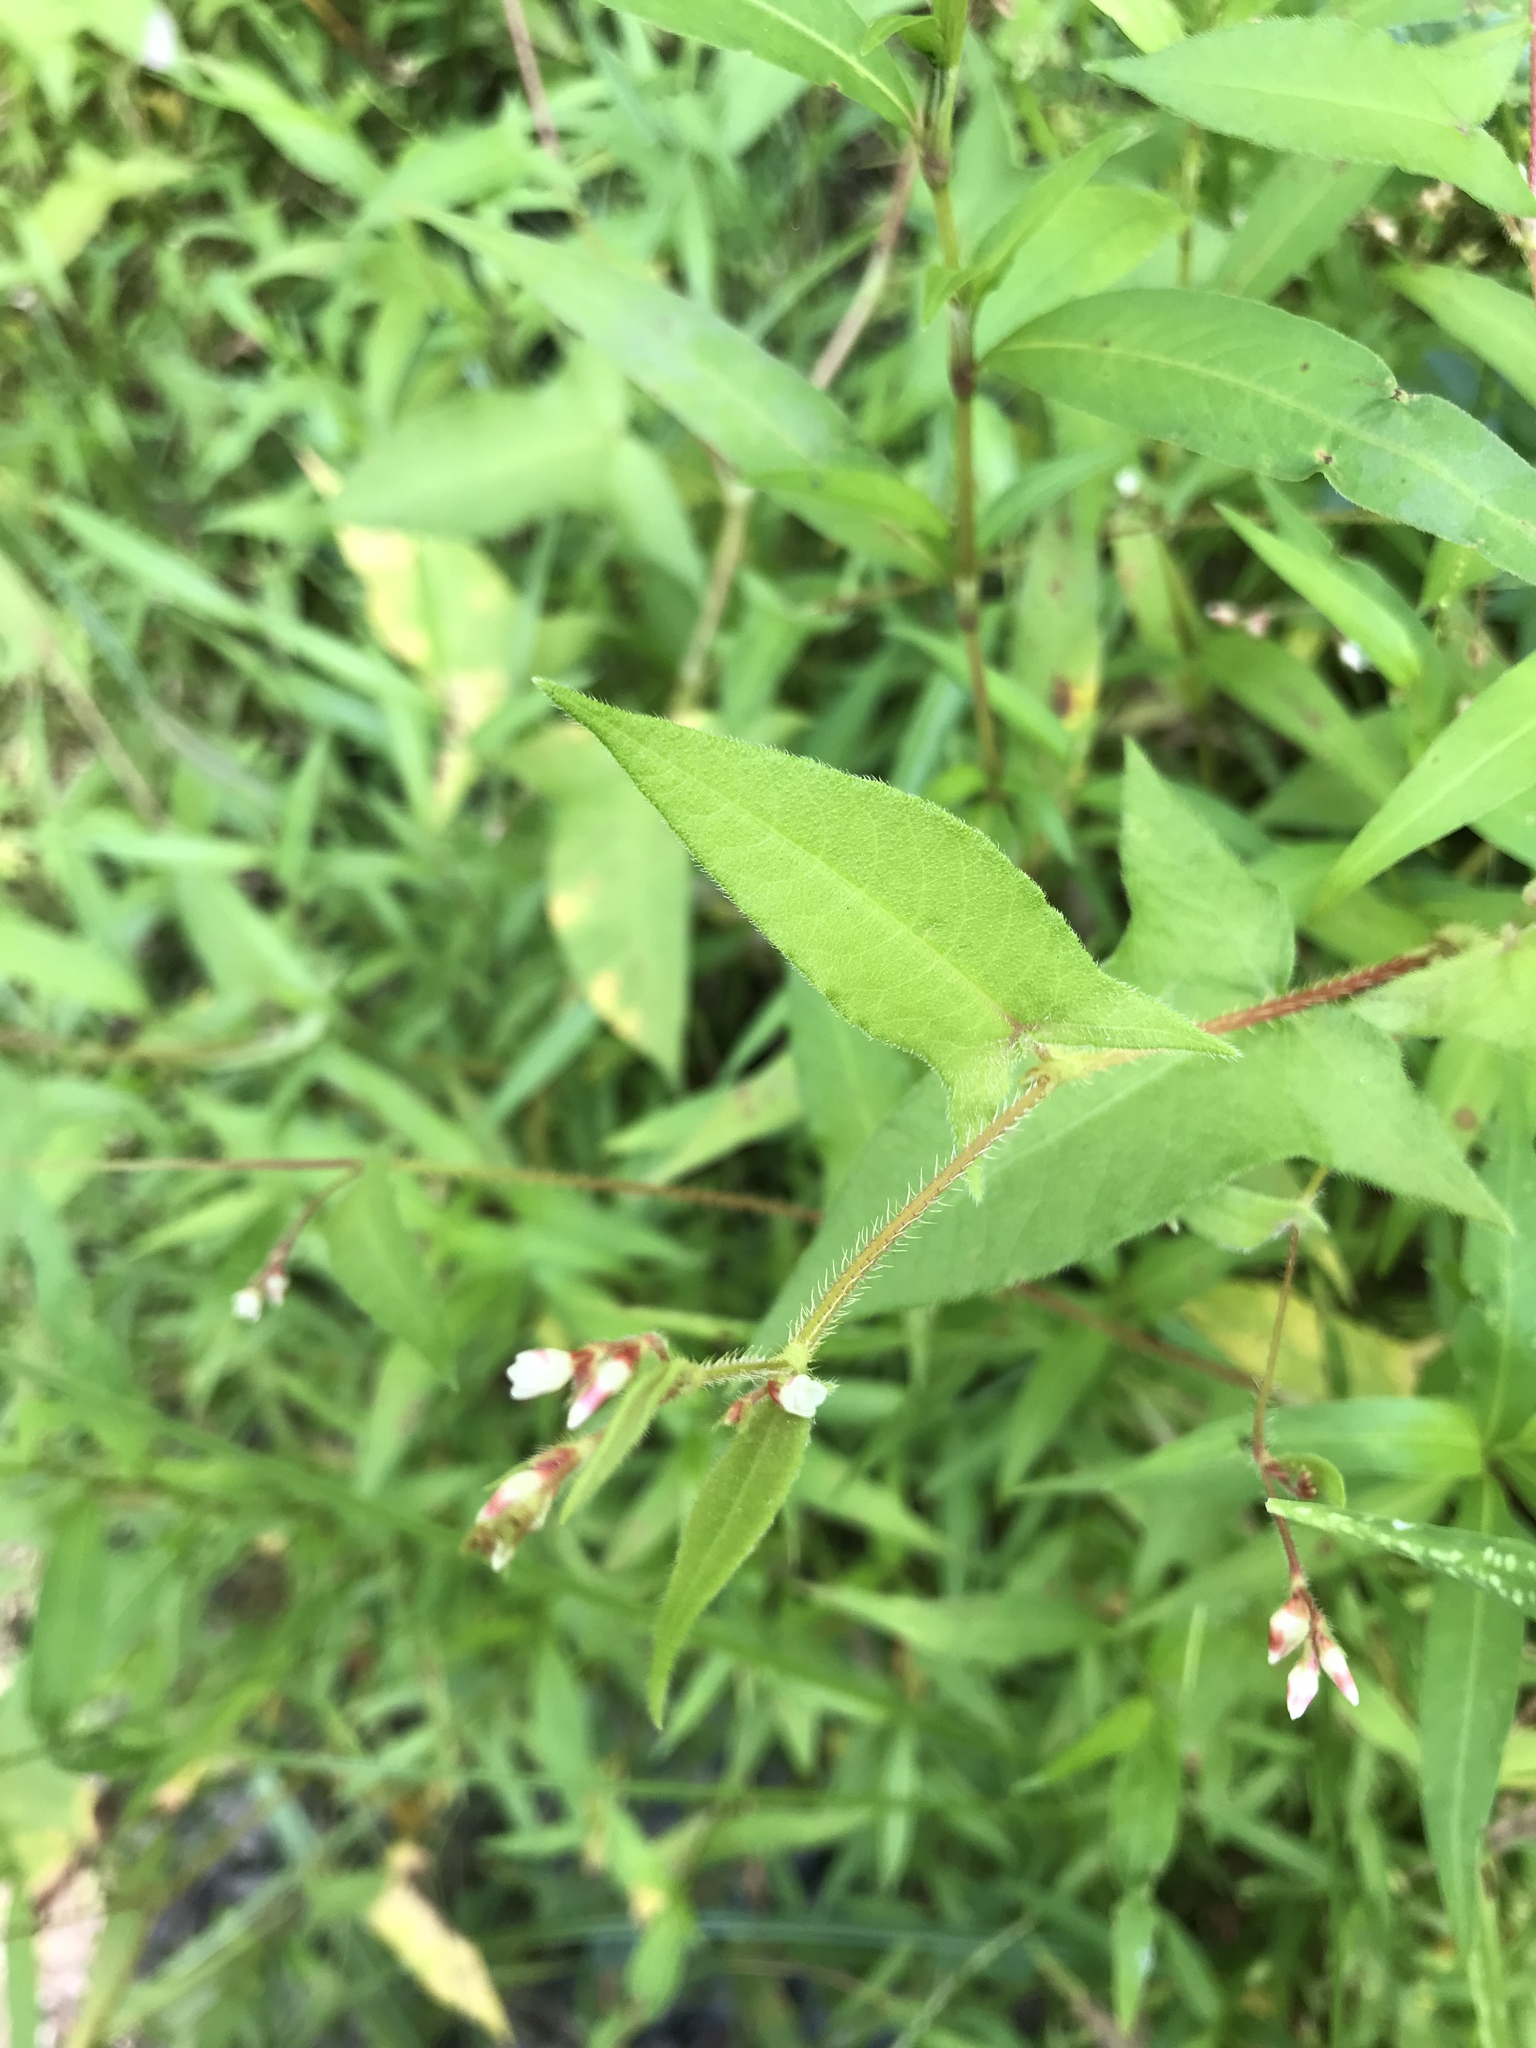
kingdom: Plantae
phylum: Tracheophyta
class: Magnoliopsida
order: Caryophyllales
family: Polygonaceae
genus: Persicaria
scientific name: Persicaria arifolia
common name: Halberd-leaved tear-thumb
